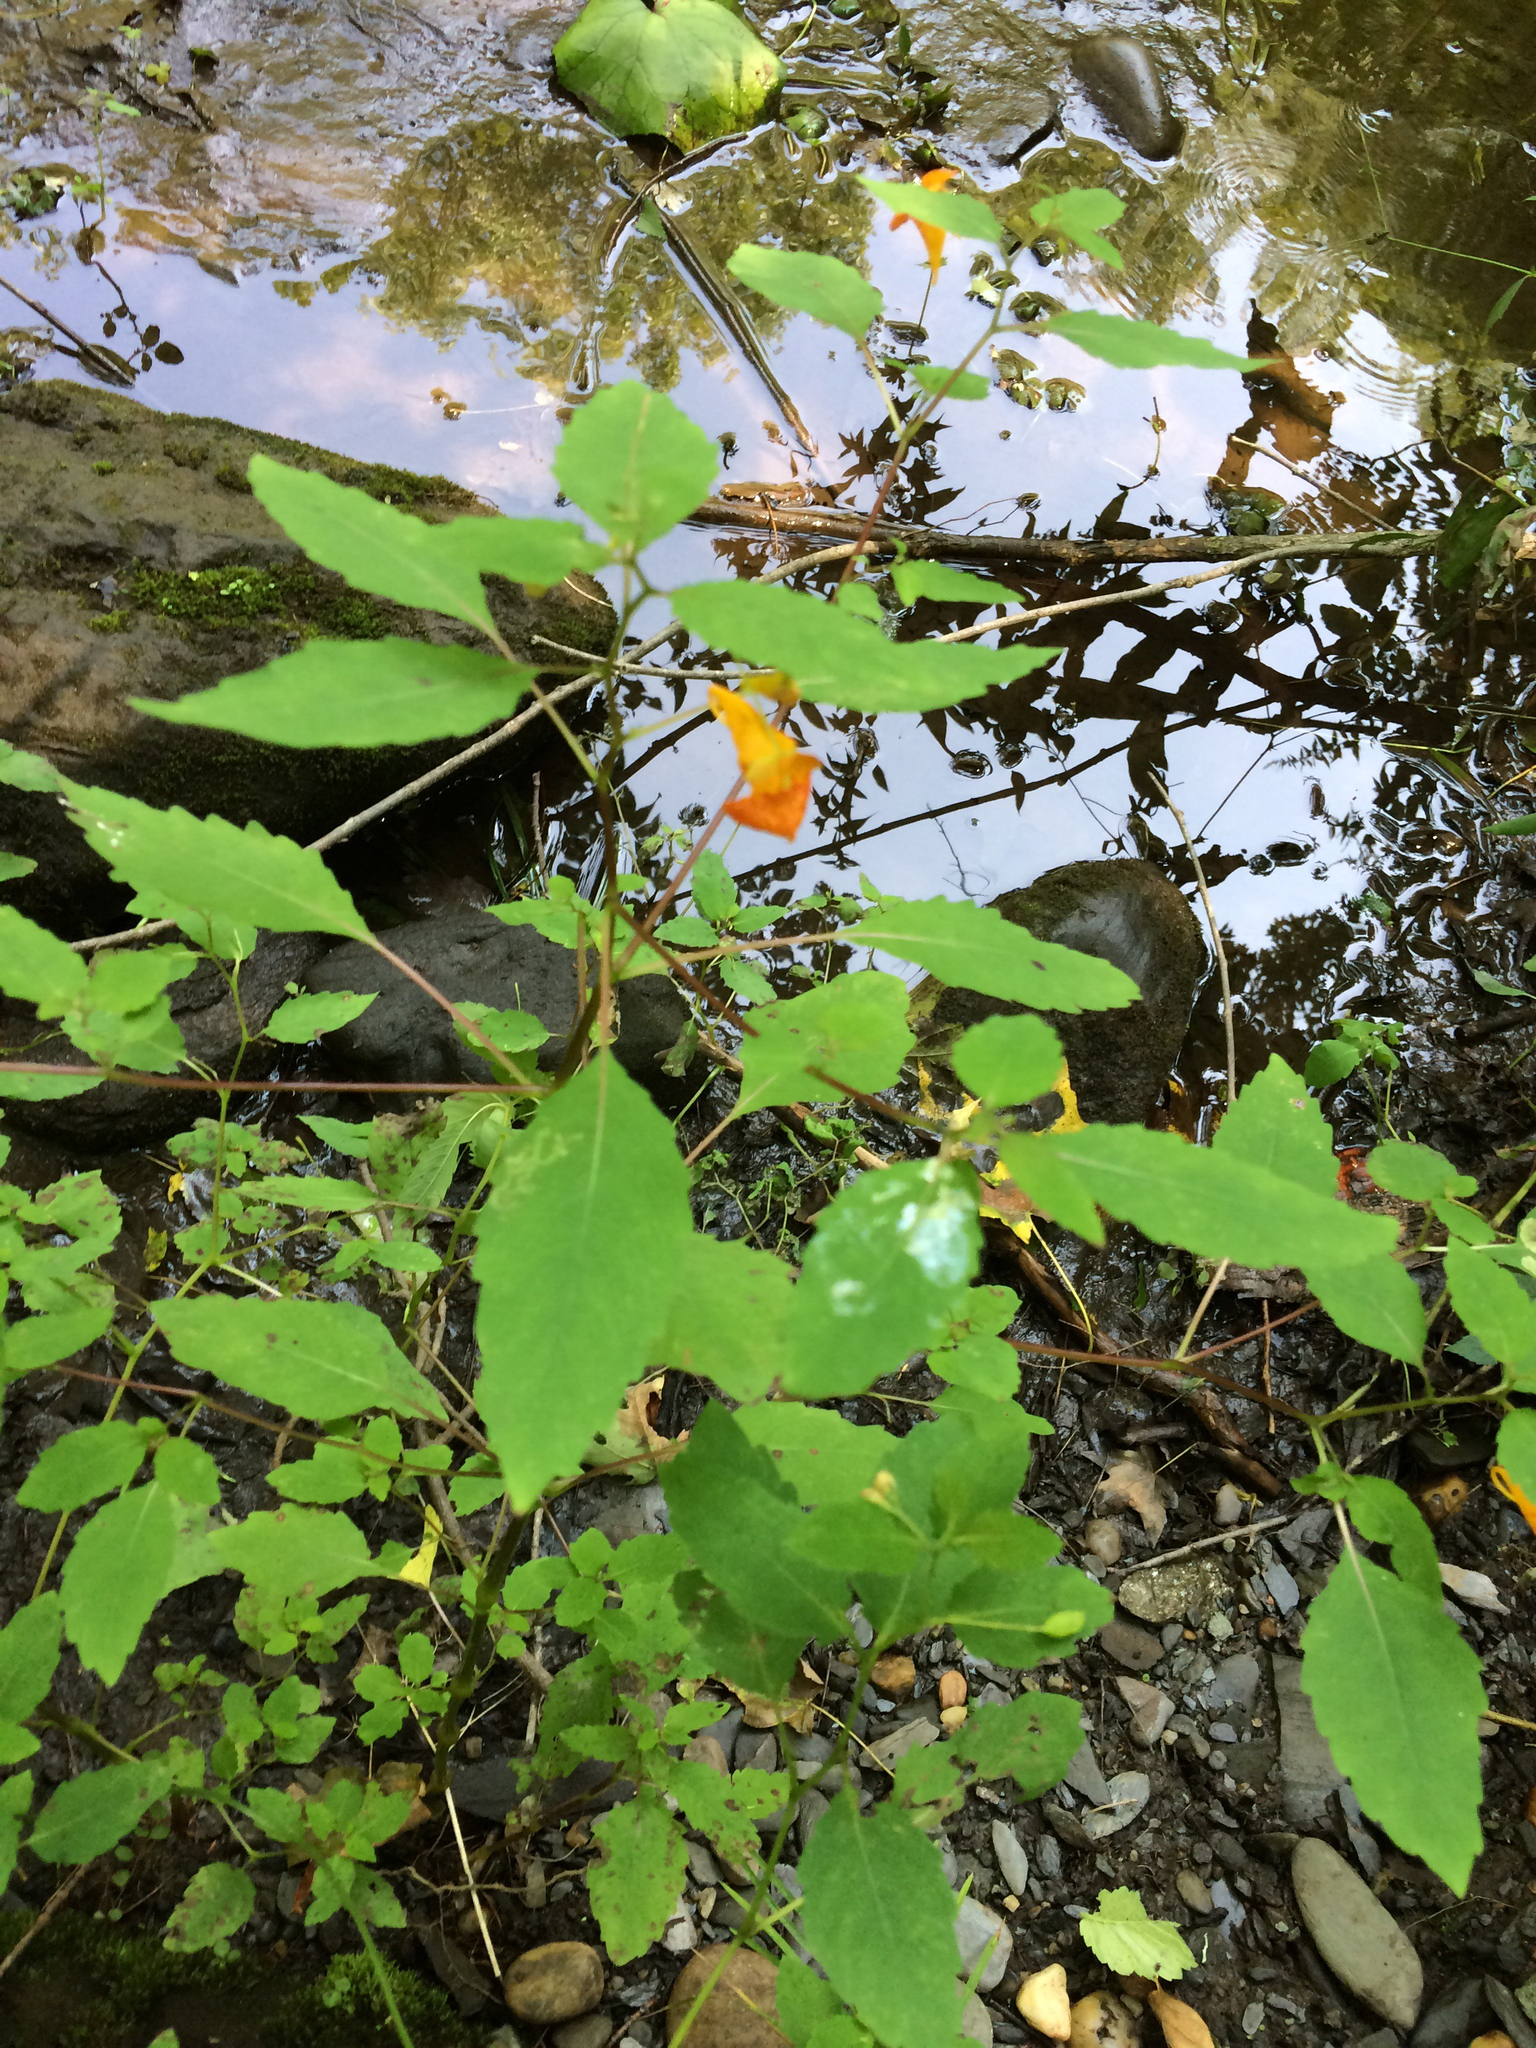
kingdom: Plantae
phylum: Tracheophyta
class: Magnoliopsida
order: Ericales
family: Balsaminaceae
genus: Impatiens
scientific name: Impatiens capensis
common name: Orange balsam
